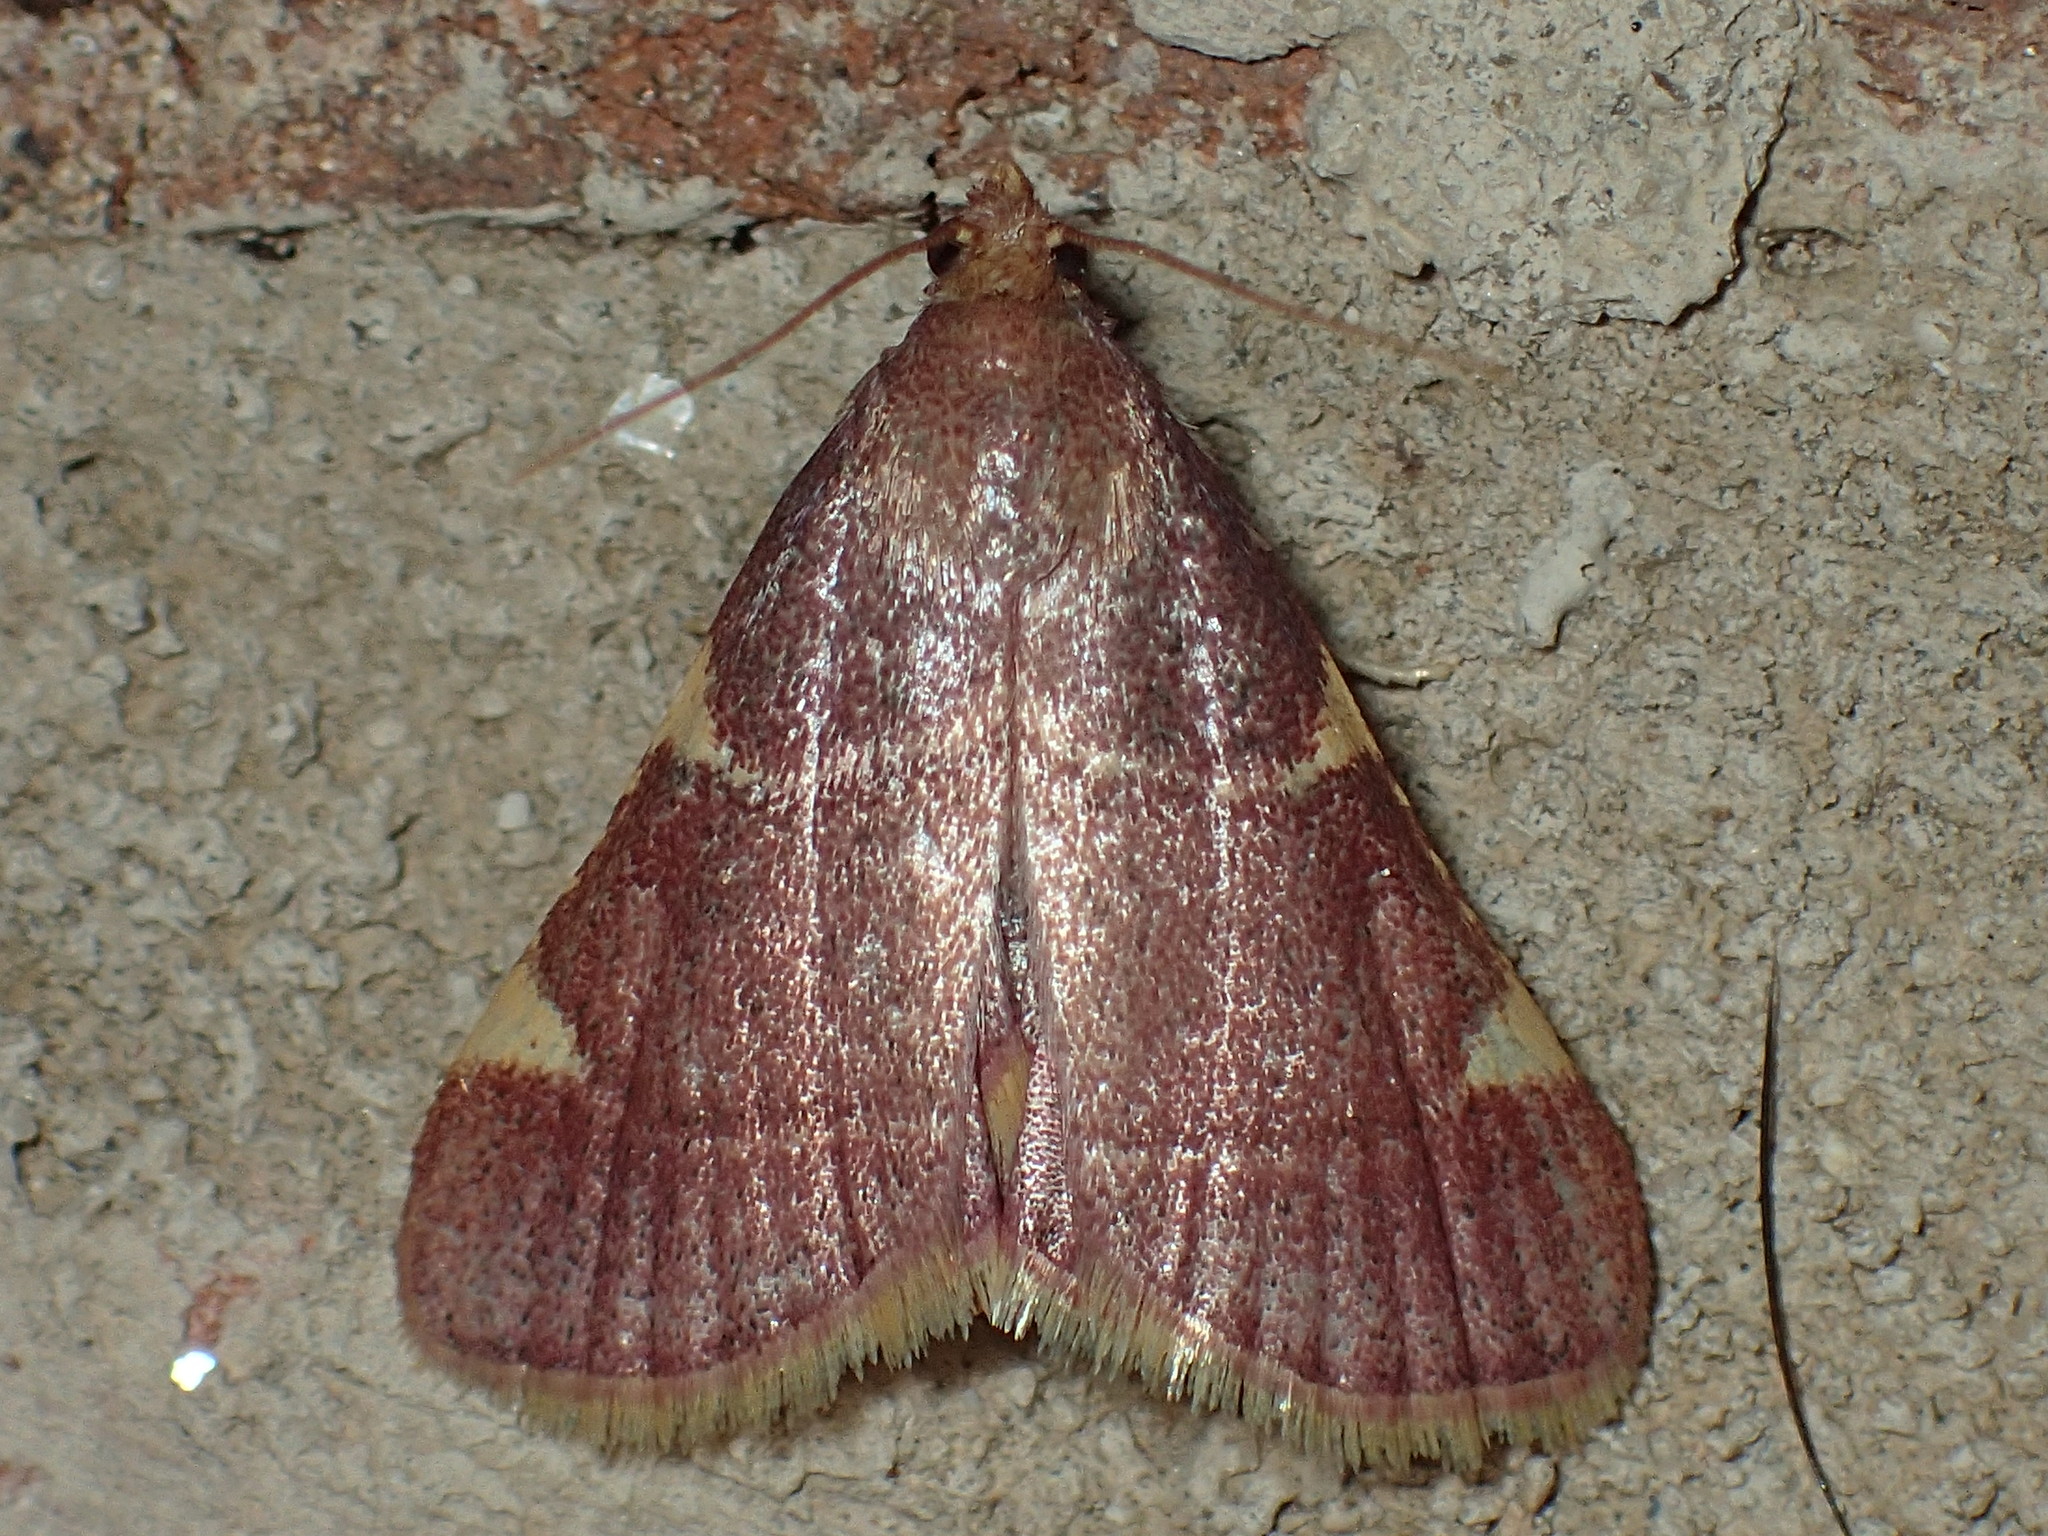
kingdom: Animalia
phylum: Arthropoda
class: Insecta
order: Lepidoptera
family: Pyralidae
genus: Hypsopygia
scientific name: Hypsopygia olinalis
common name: Yellow-fringed dolichomia moth
